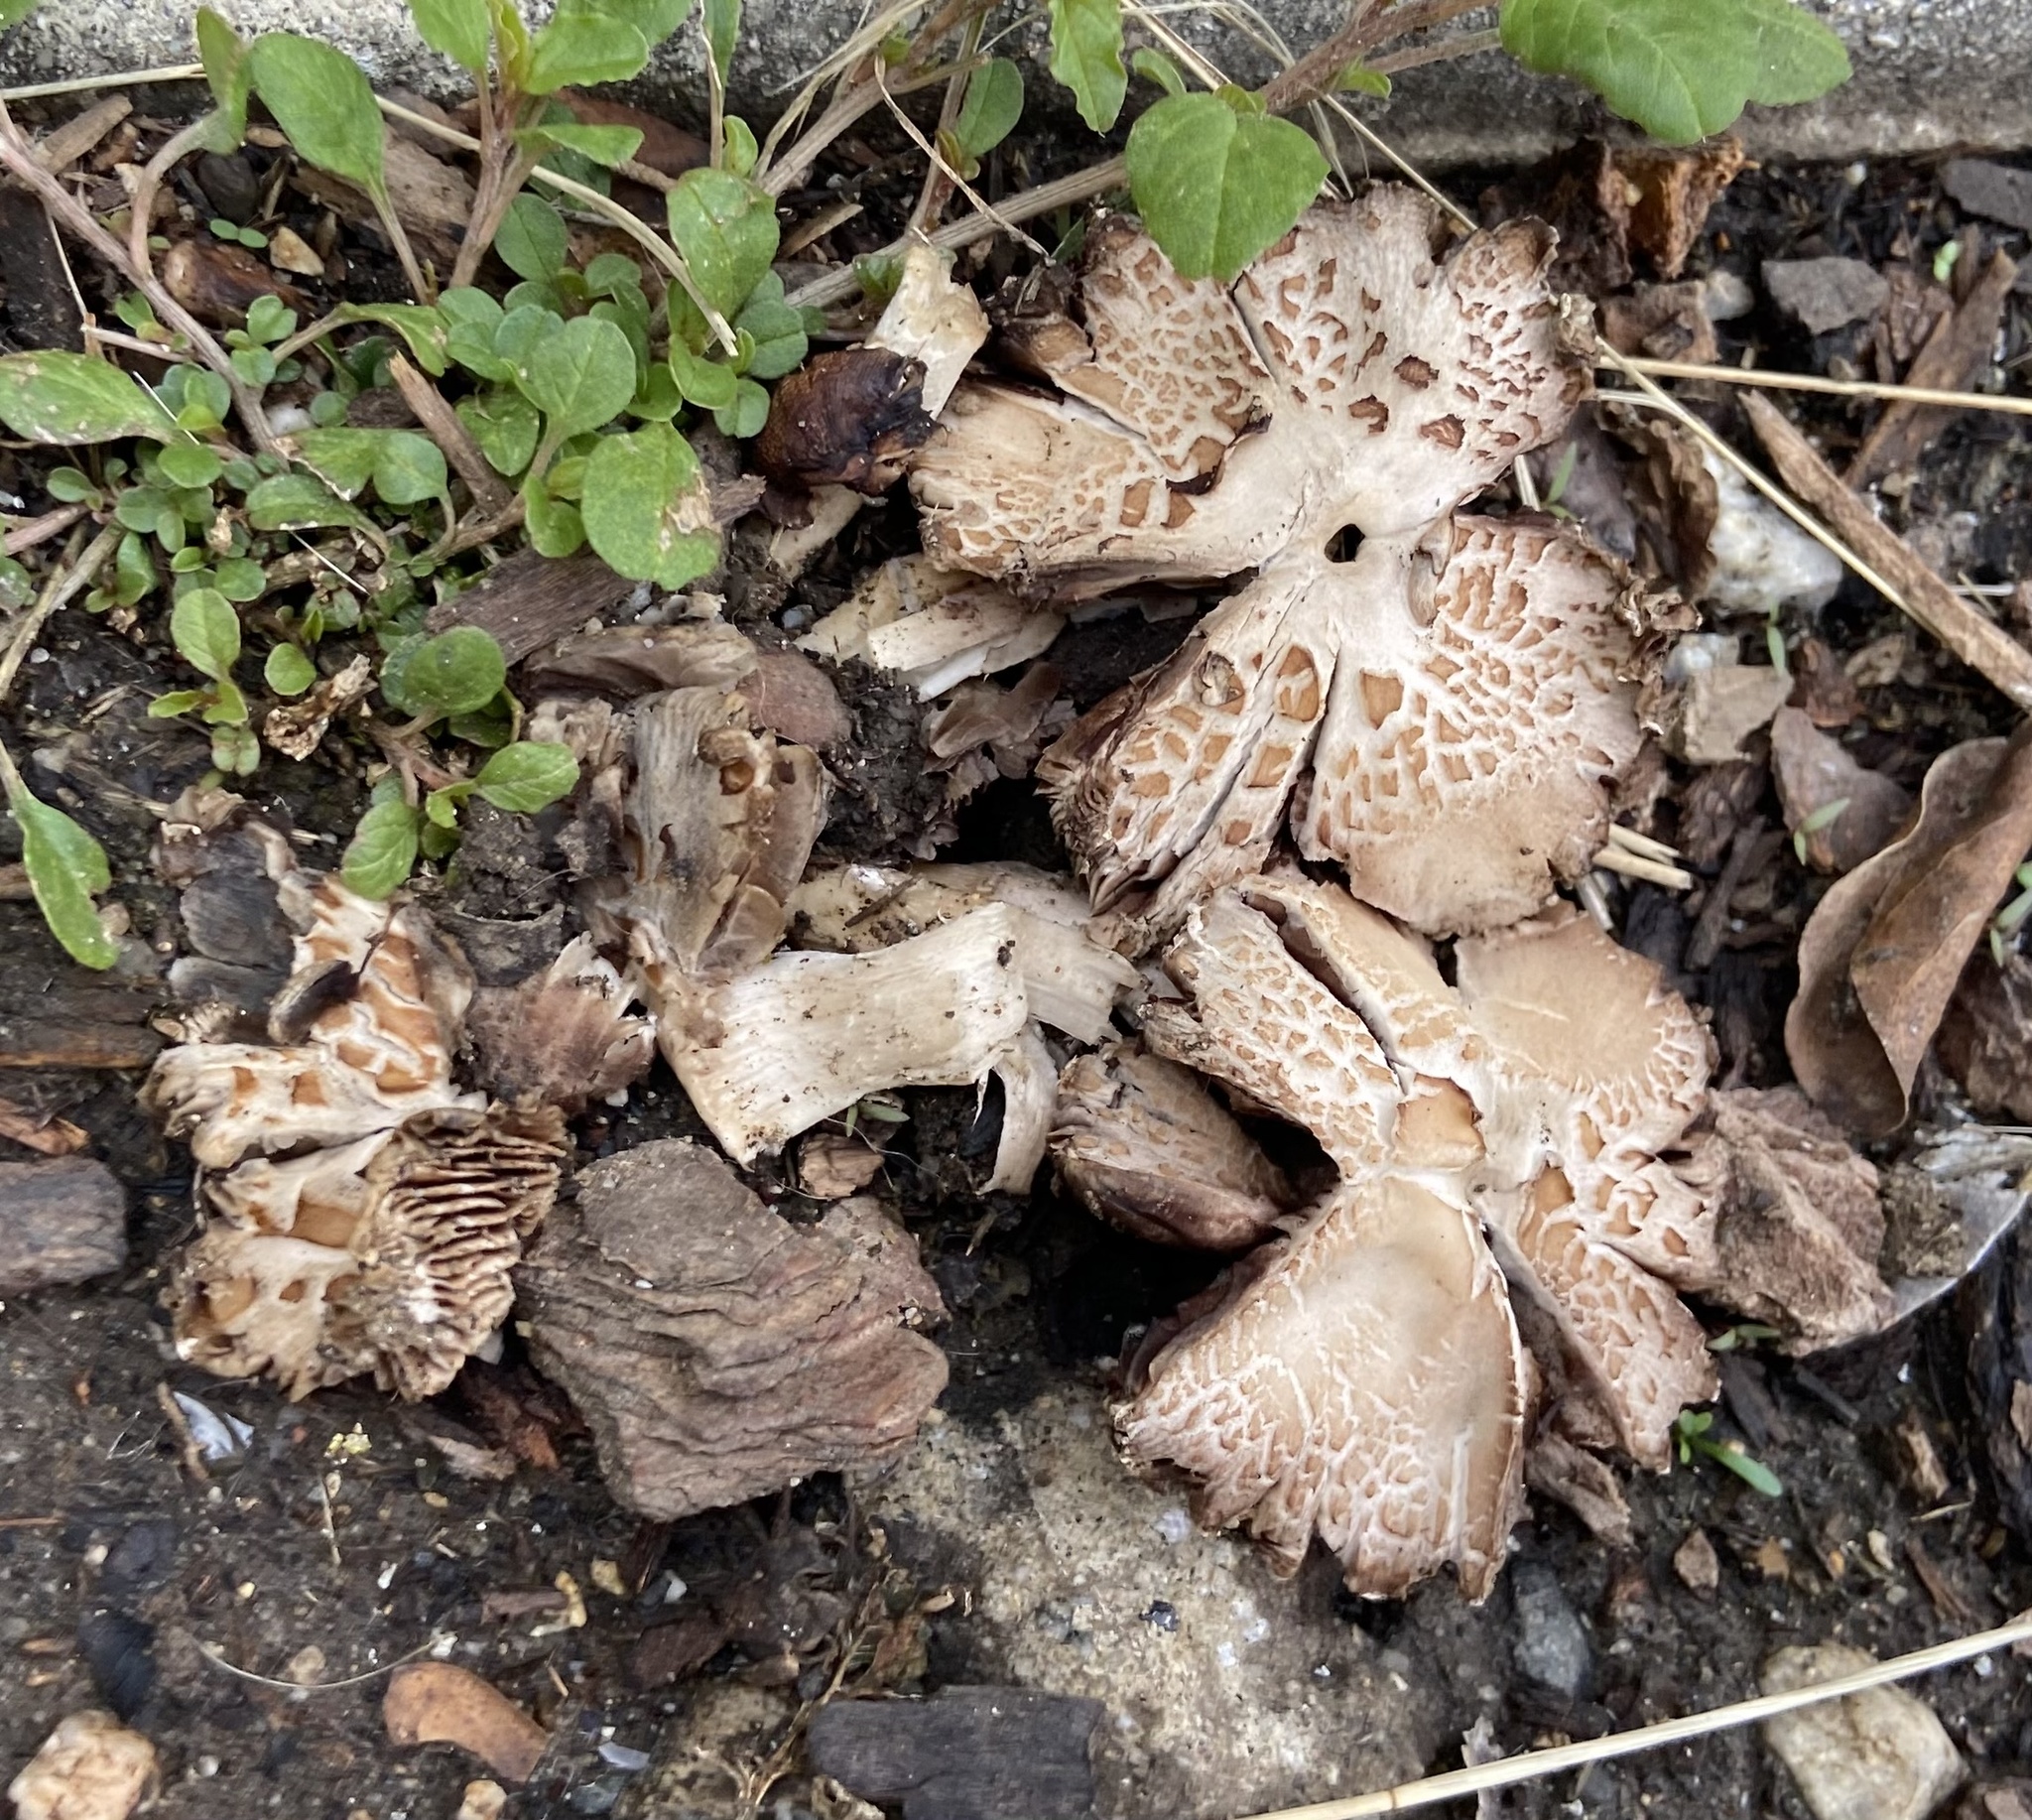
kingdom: Fungi
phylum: Basidiomycota
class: Agaricomycetes
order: Agaricales
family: Psathyrellaceae
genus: Candolleomyces
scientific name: Candolleomyces candolleanus
